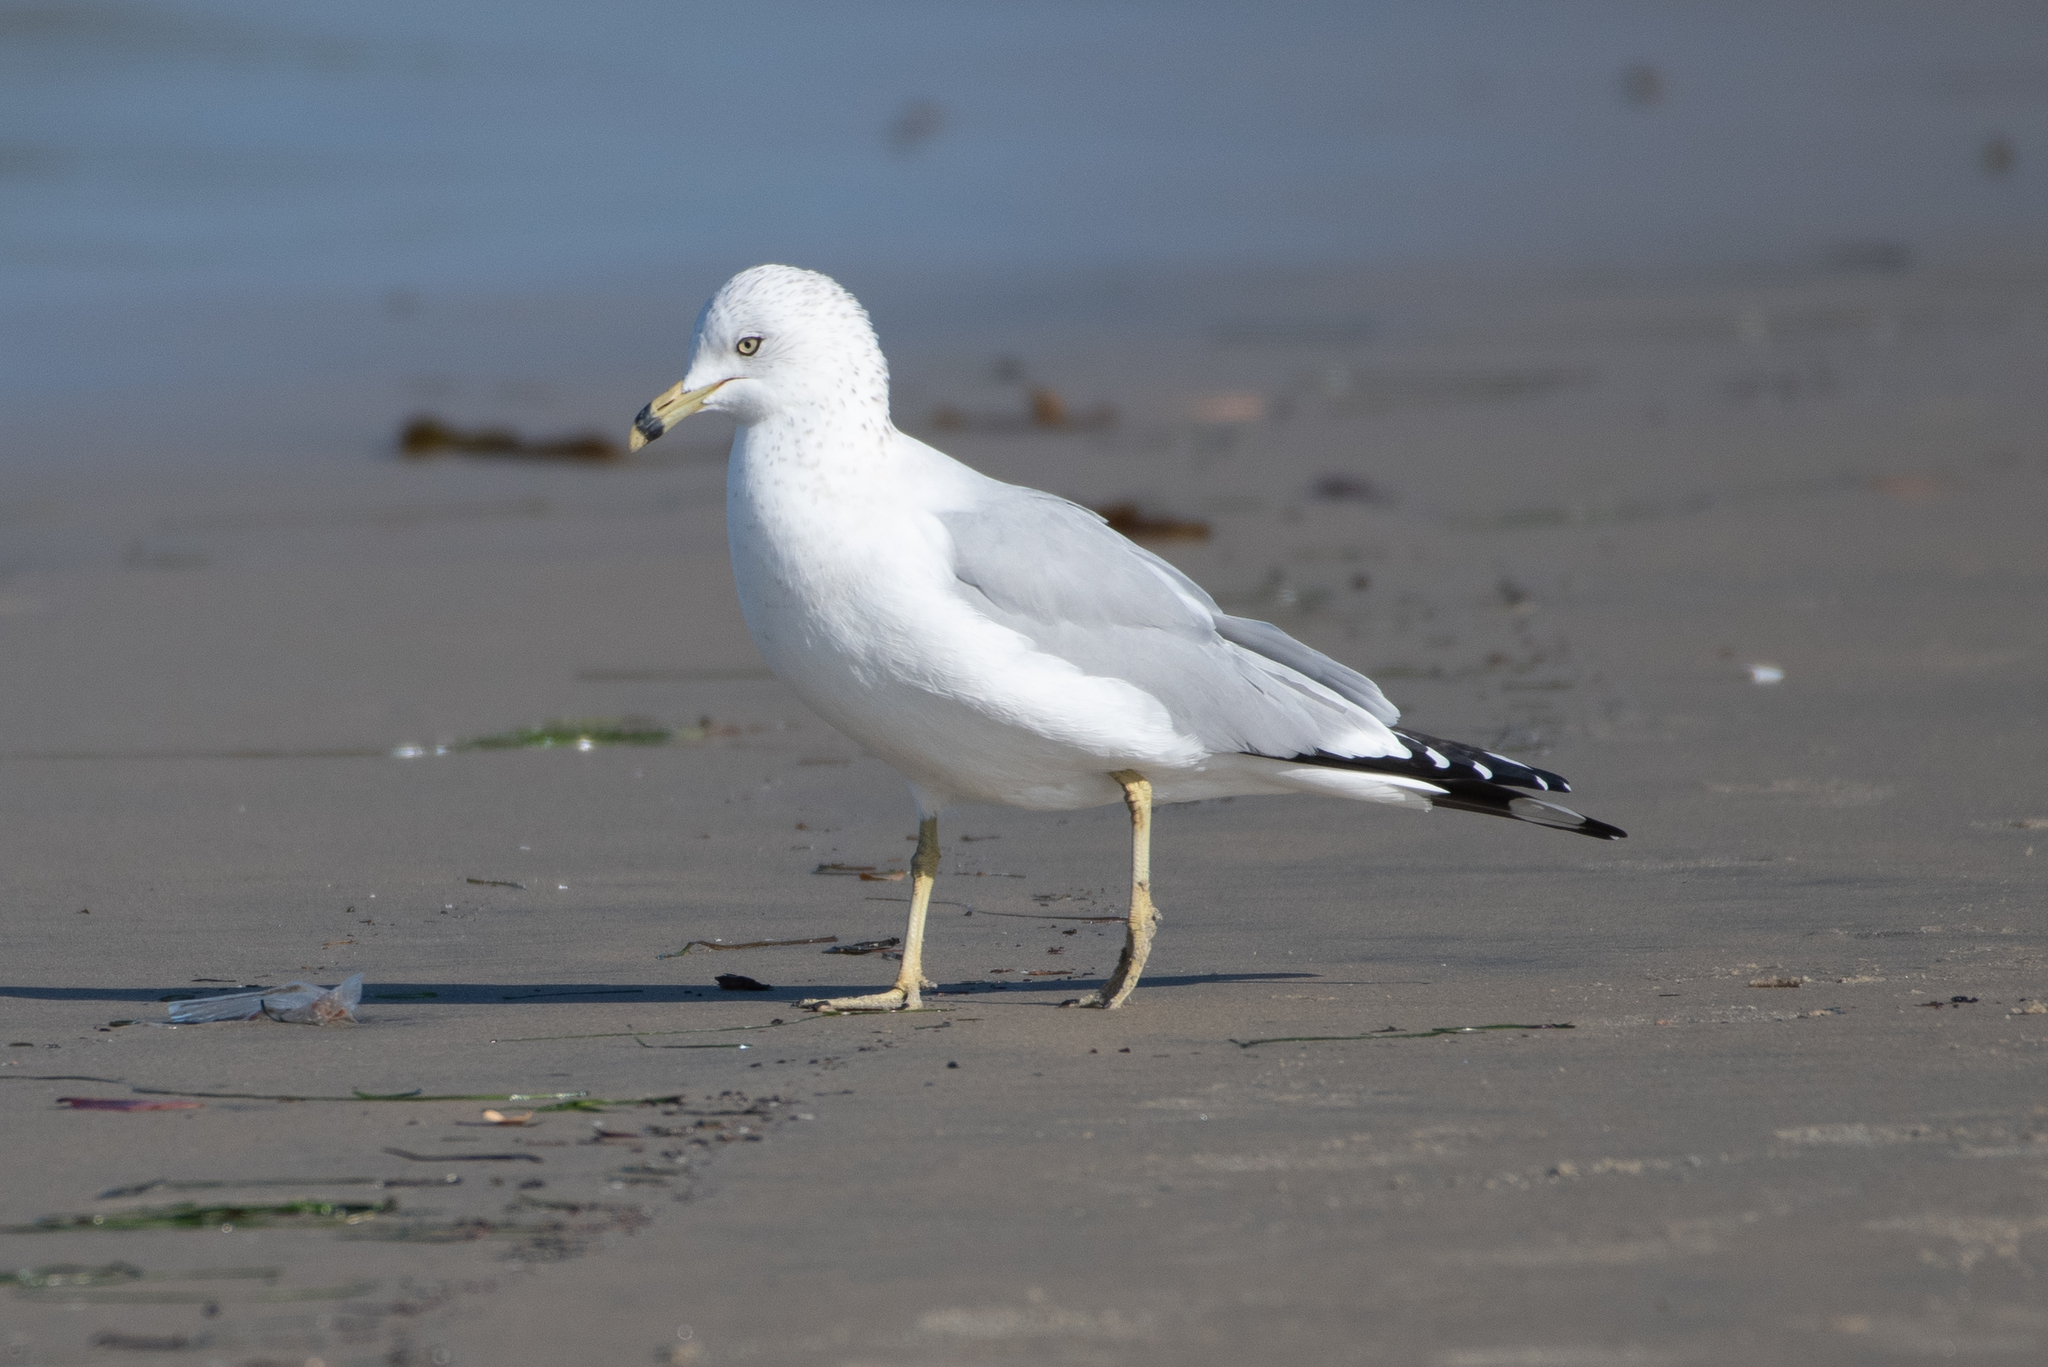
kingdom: Animalia
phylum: Chordata
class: Aves
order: Charadriiformes
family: Laridae
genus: Larus
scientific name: Larus delawarensis
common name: Ring-billed gull
